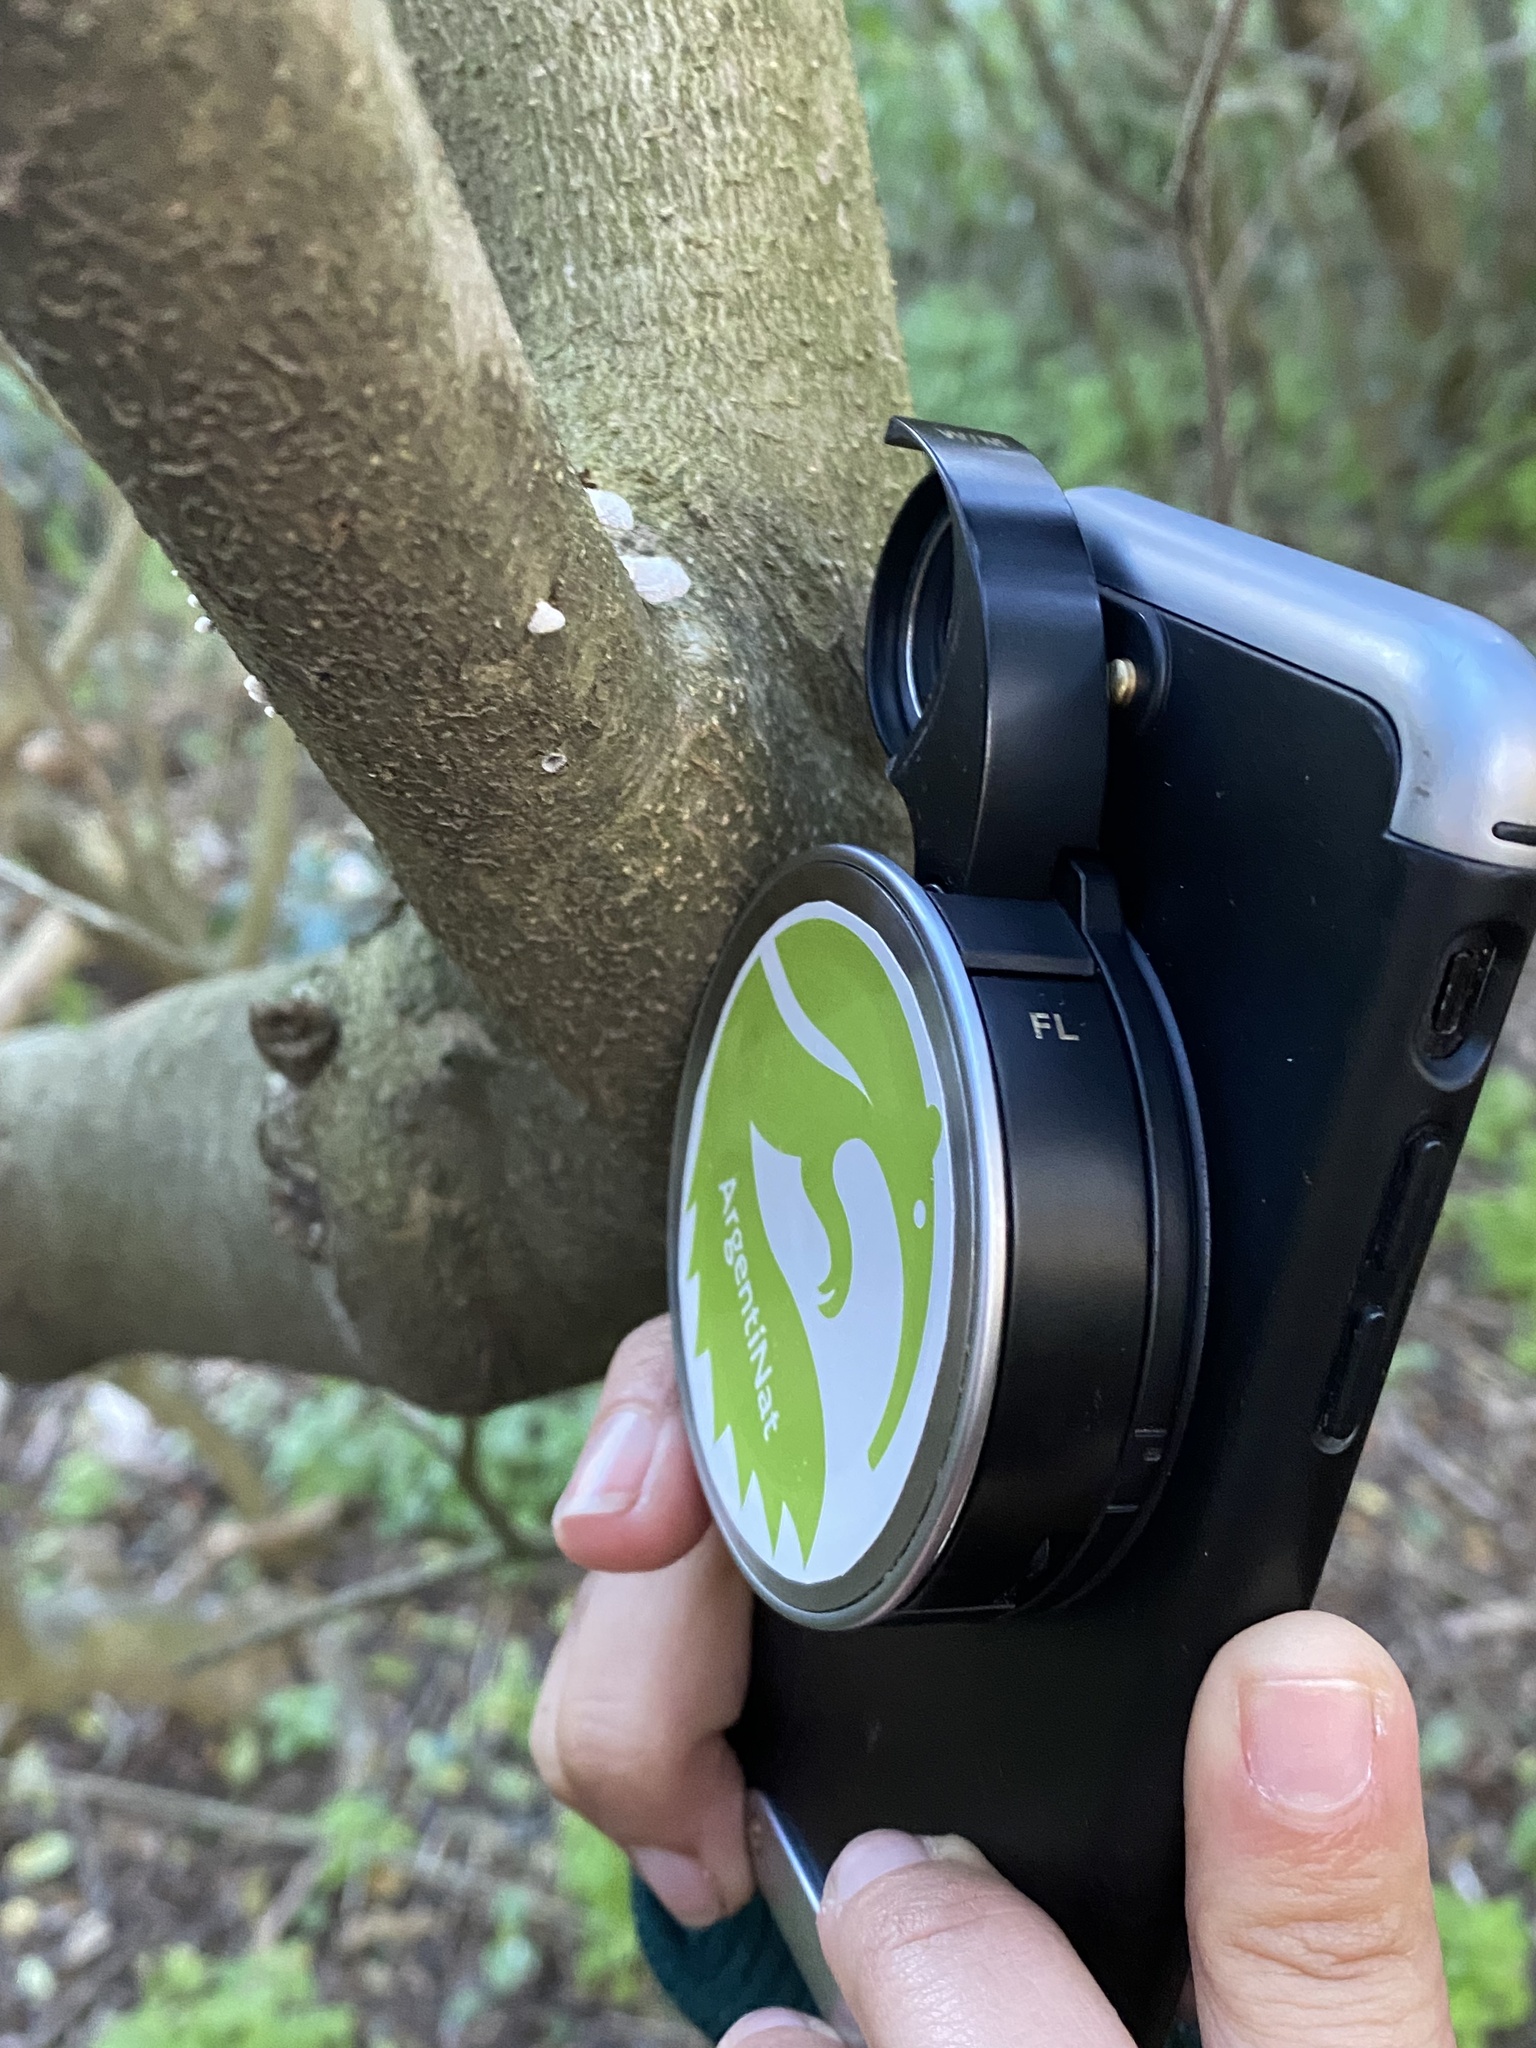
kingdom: Fungi
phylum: Basidiomycota
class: Agaricomycetes
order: Agaricales
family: Schizophyllaceae
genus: Schizophyllum
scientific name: Schizophyllum commune
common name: Common porecrust
